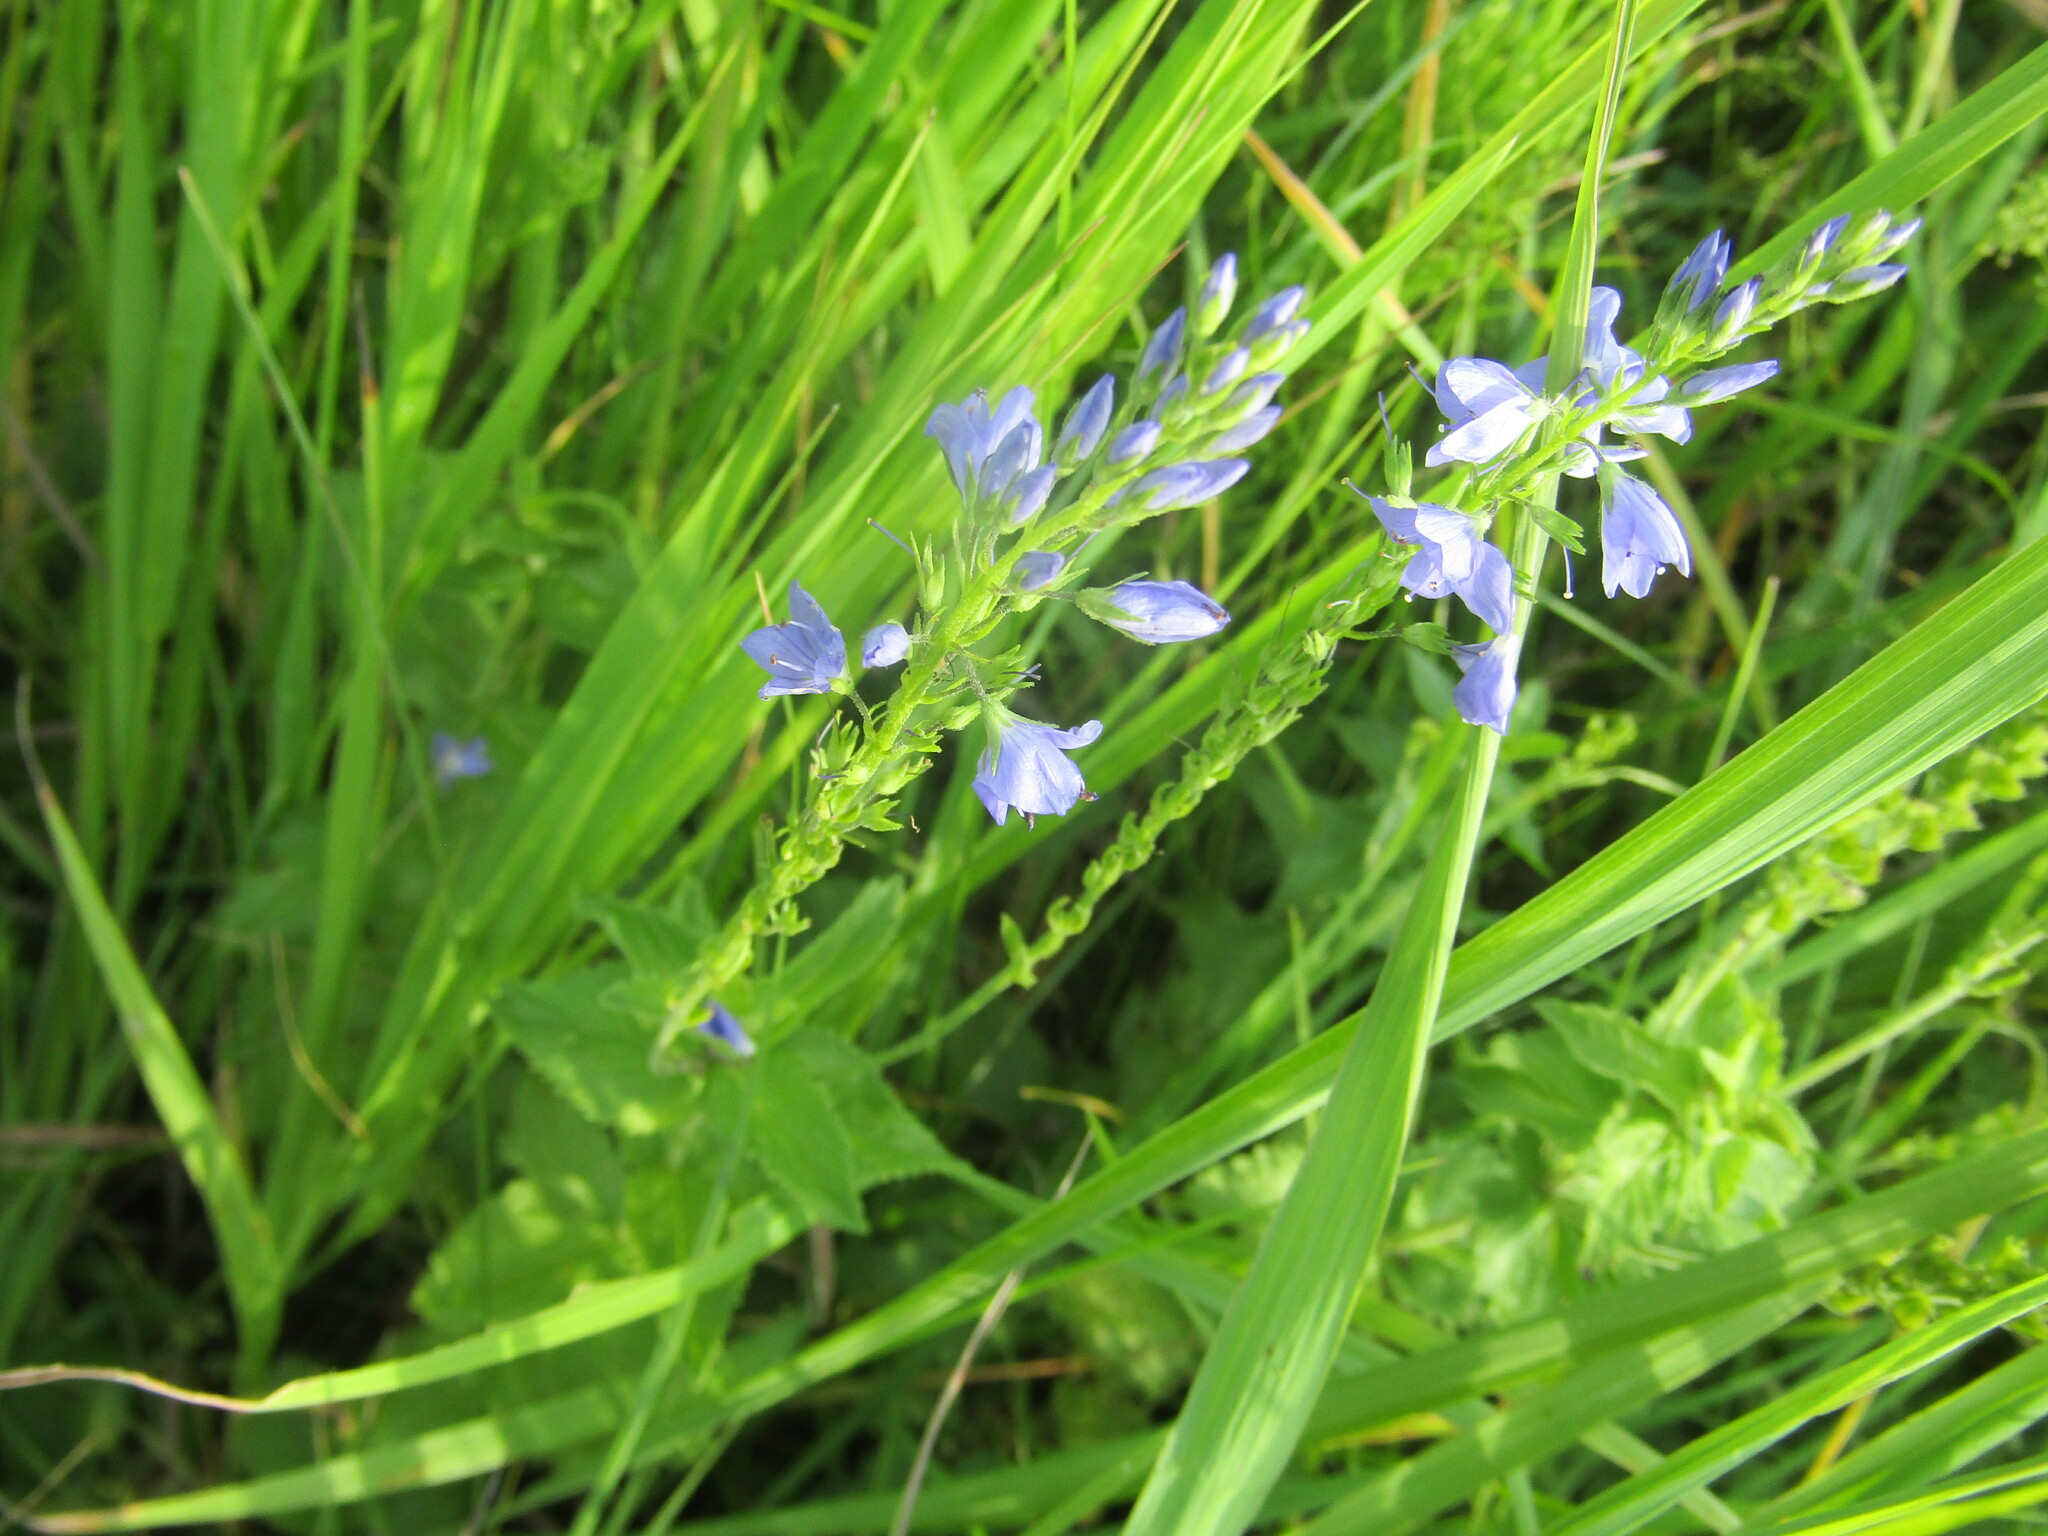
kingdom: Plantae
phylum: Tracheophyta
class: Magnoliopsida
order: Lamiales
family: Plantaginaceae
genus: Veronica
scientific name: Veronica teucrium
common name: Large speedwell
